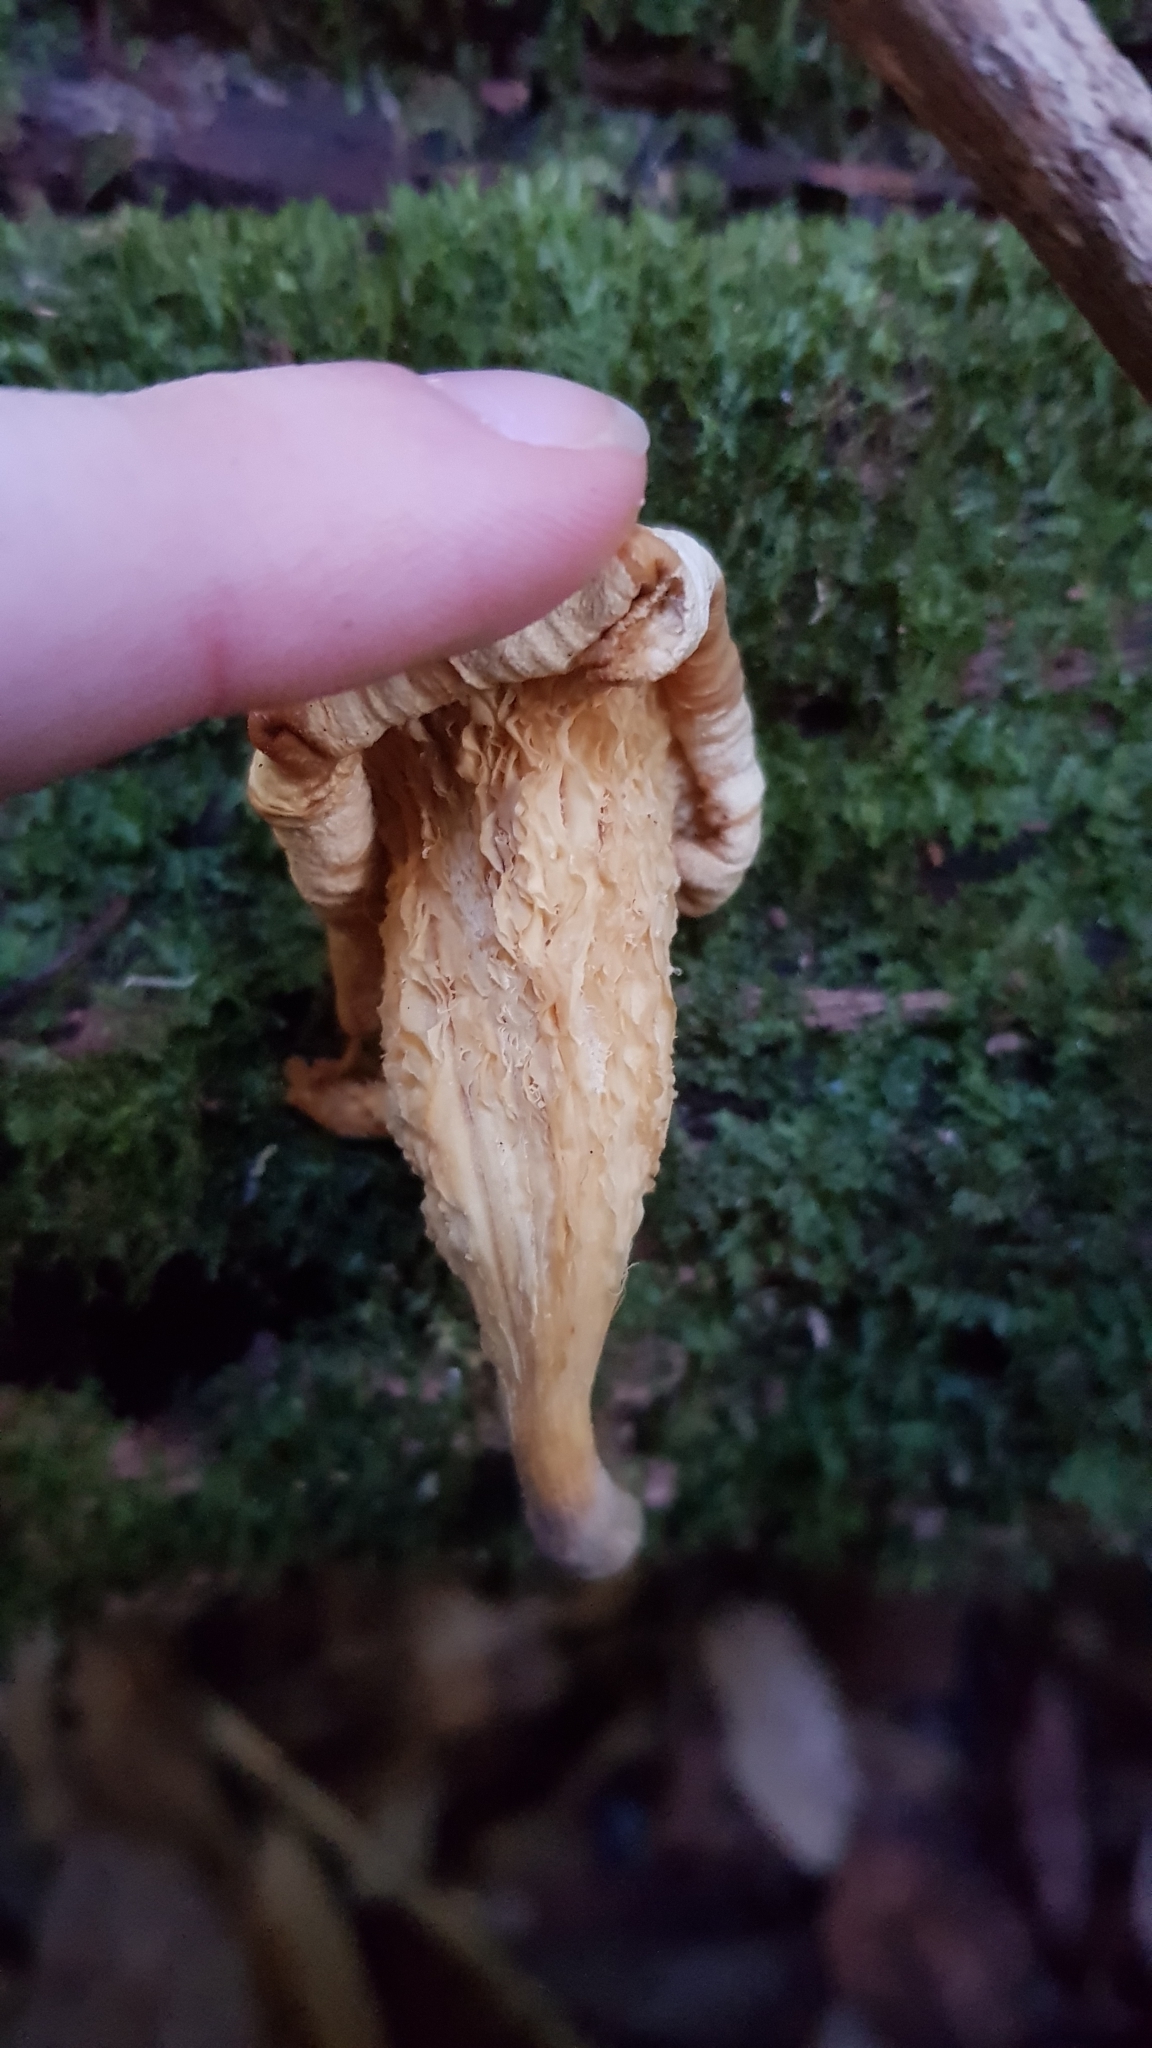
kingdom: Fungi
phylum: Basidiomycota
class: Agaricomycetes
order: Agaricales
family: Omphalotaceae
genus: Omphalotus
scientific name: Omphalotus nidiformis
